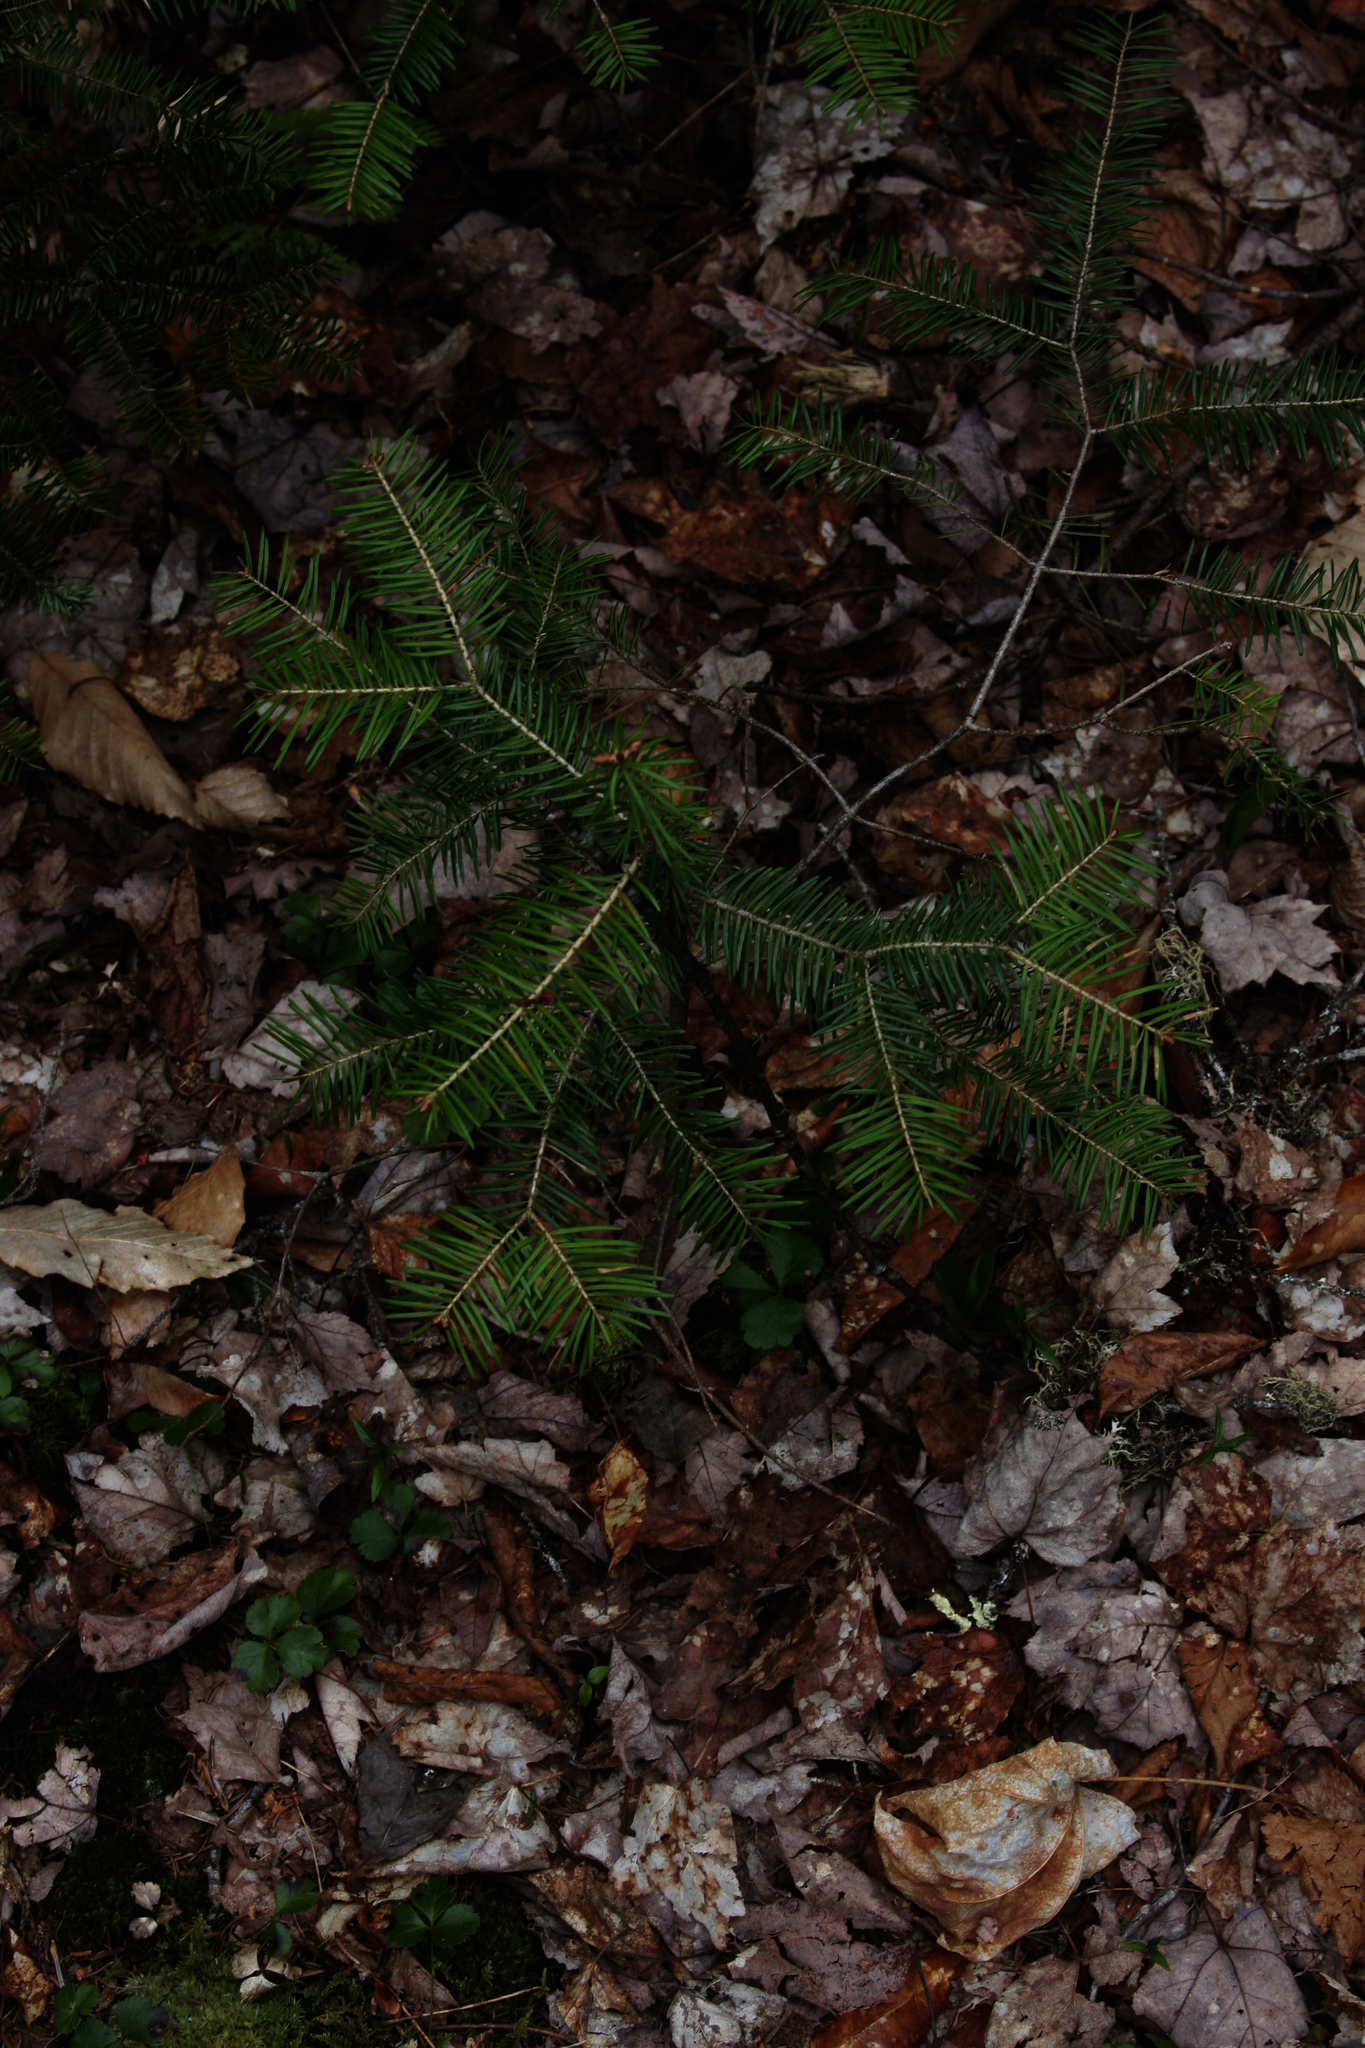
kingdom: Plantae
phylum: Tracheophyta
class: Pinopsida
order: Pinales
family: Pinaceae
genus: Abies
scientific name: Abies balsamea
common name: Balsam fir
